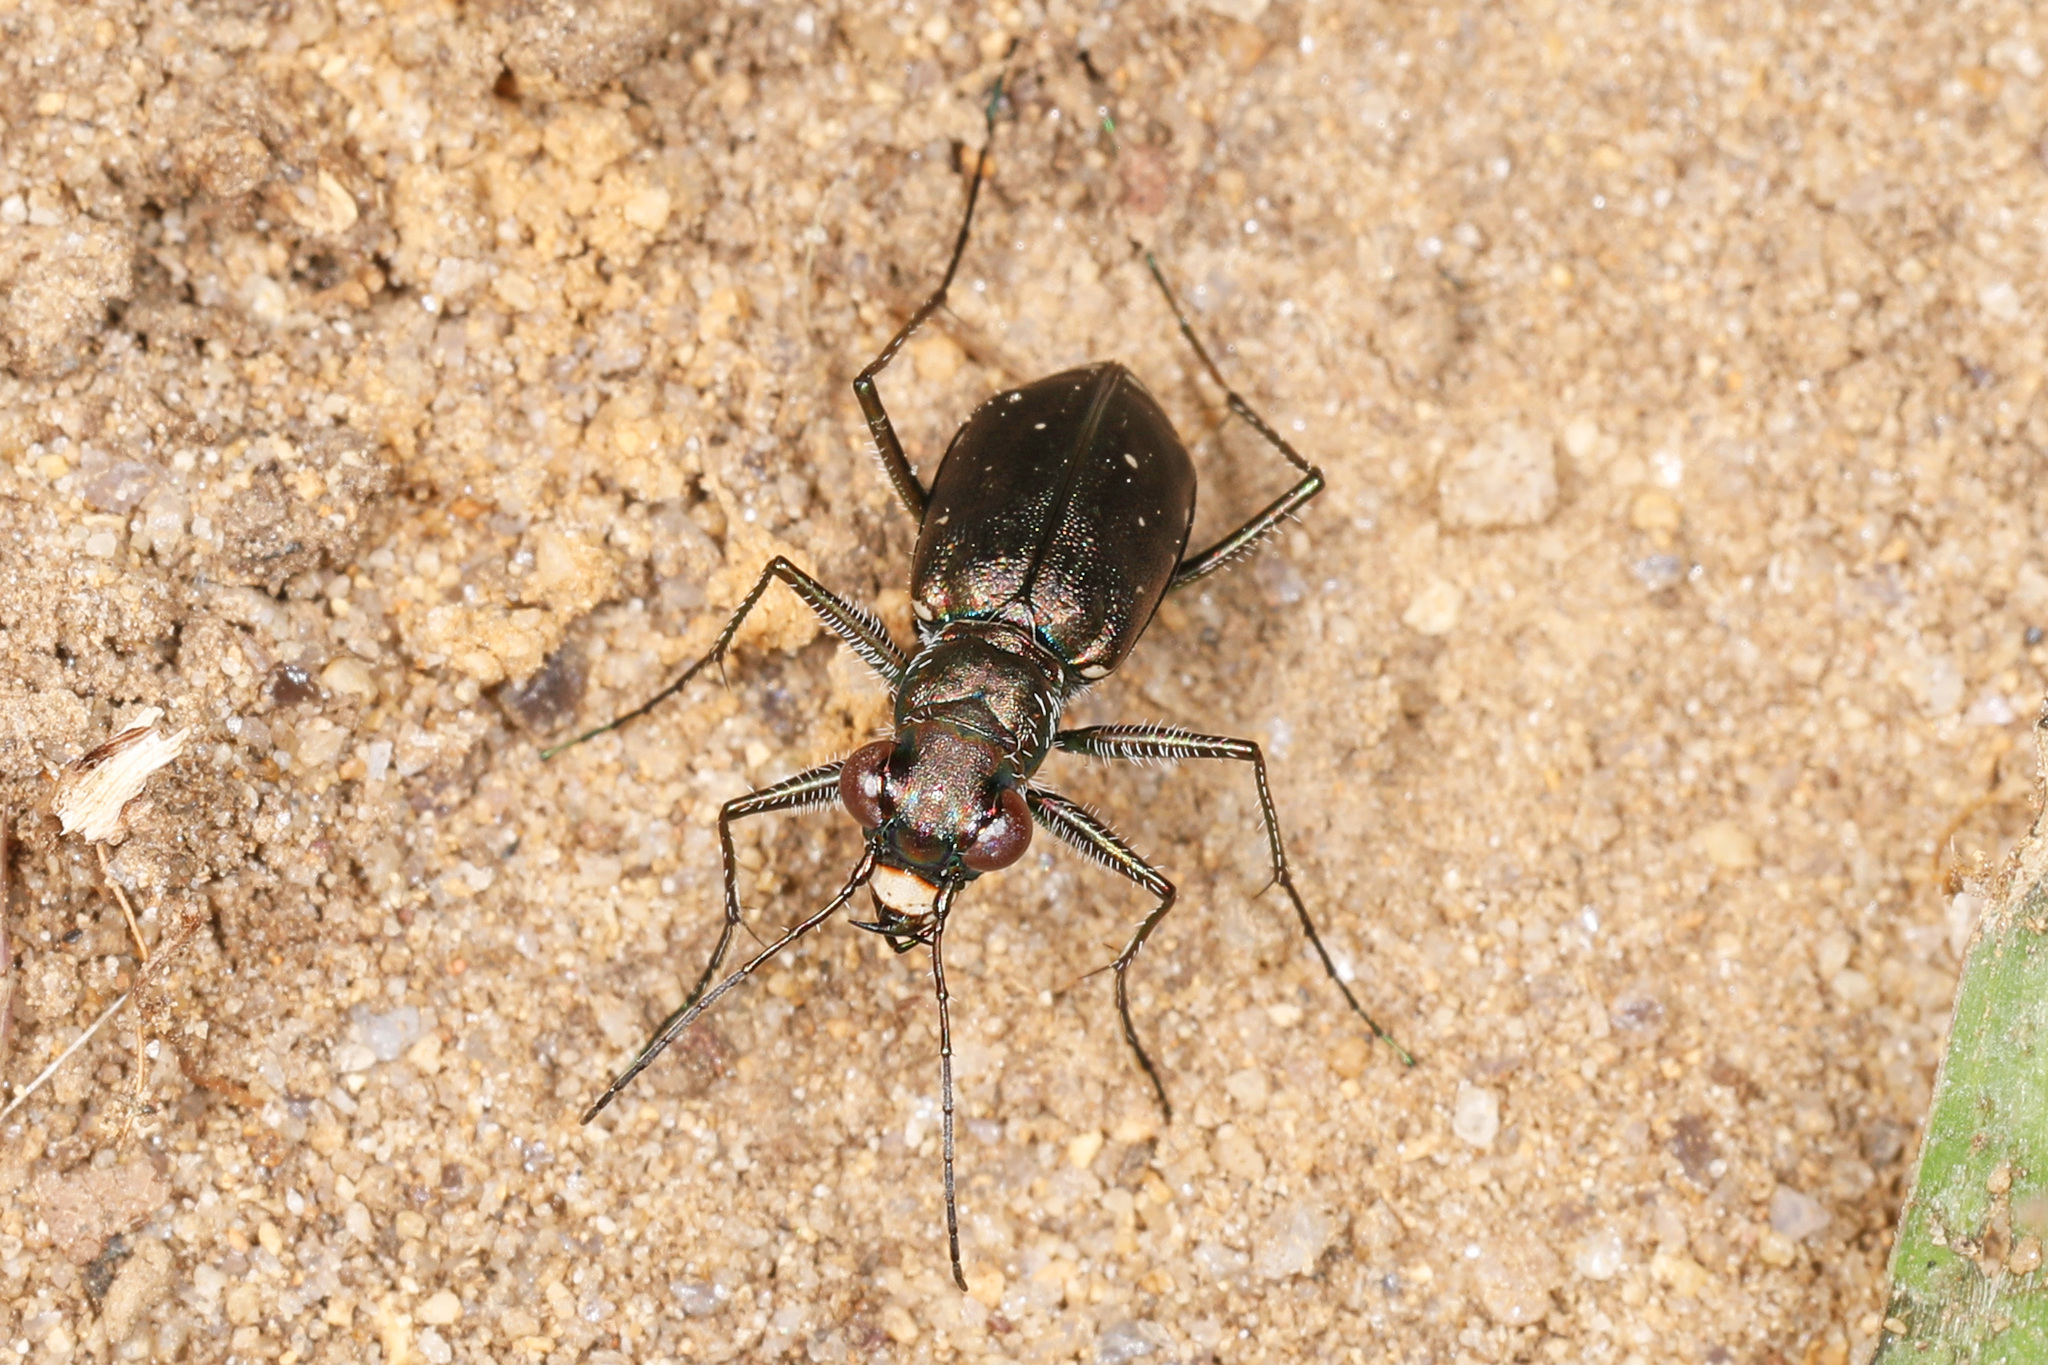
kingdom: Animalia
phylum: Arthropoda
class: Insecta
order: Coleoptera
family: Carabidae
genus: Cicindela
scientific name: Cicindela punctulata
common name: Punctured tiger beetle
